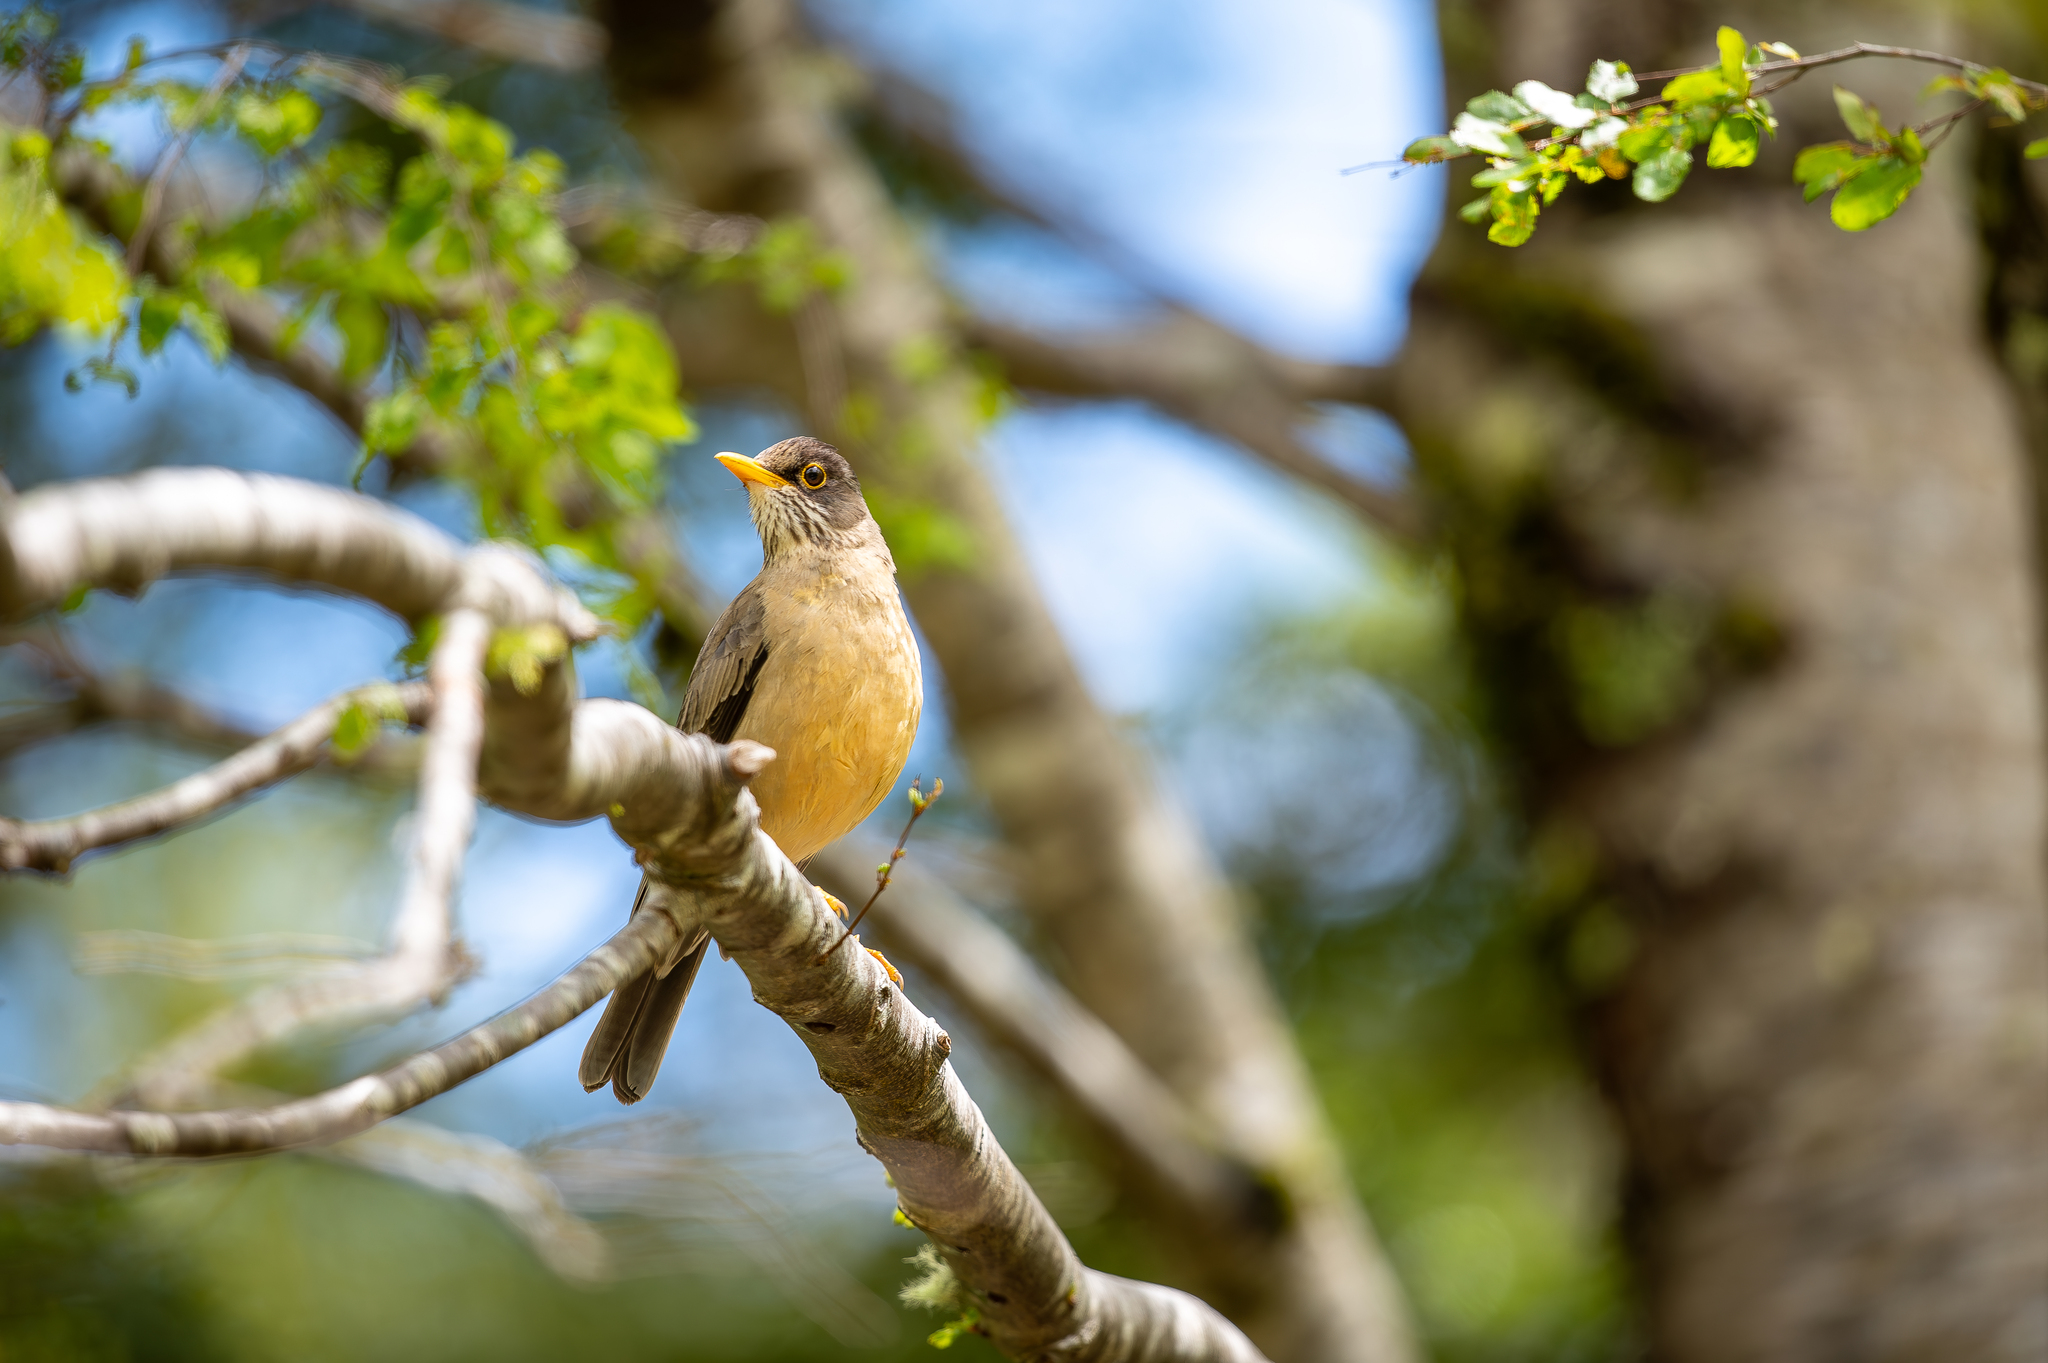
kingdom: Animalia
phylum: Chordata
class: Aves
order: Passeriformes
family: Turdidae
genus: Turdus
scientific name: Turdus falcklandii
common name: Austral thrush
